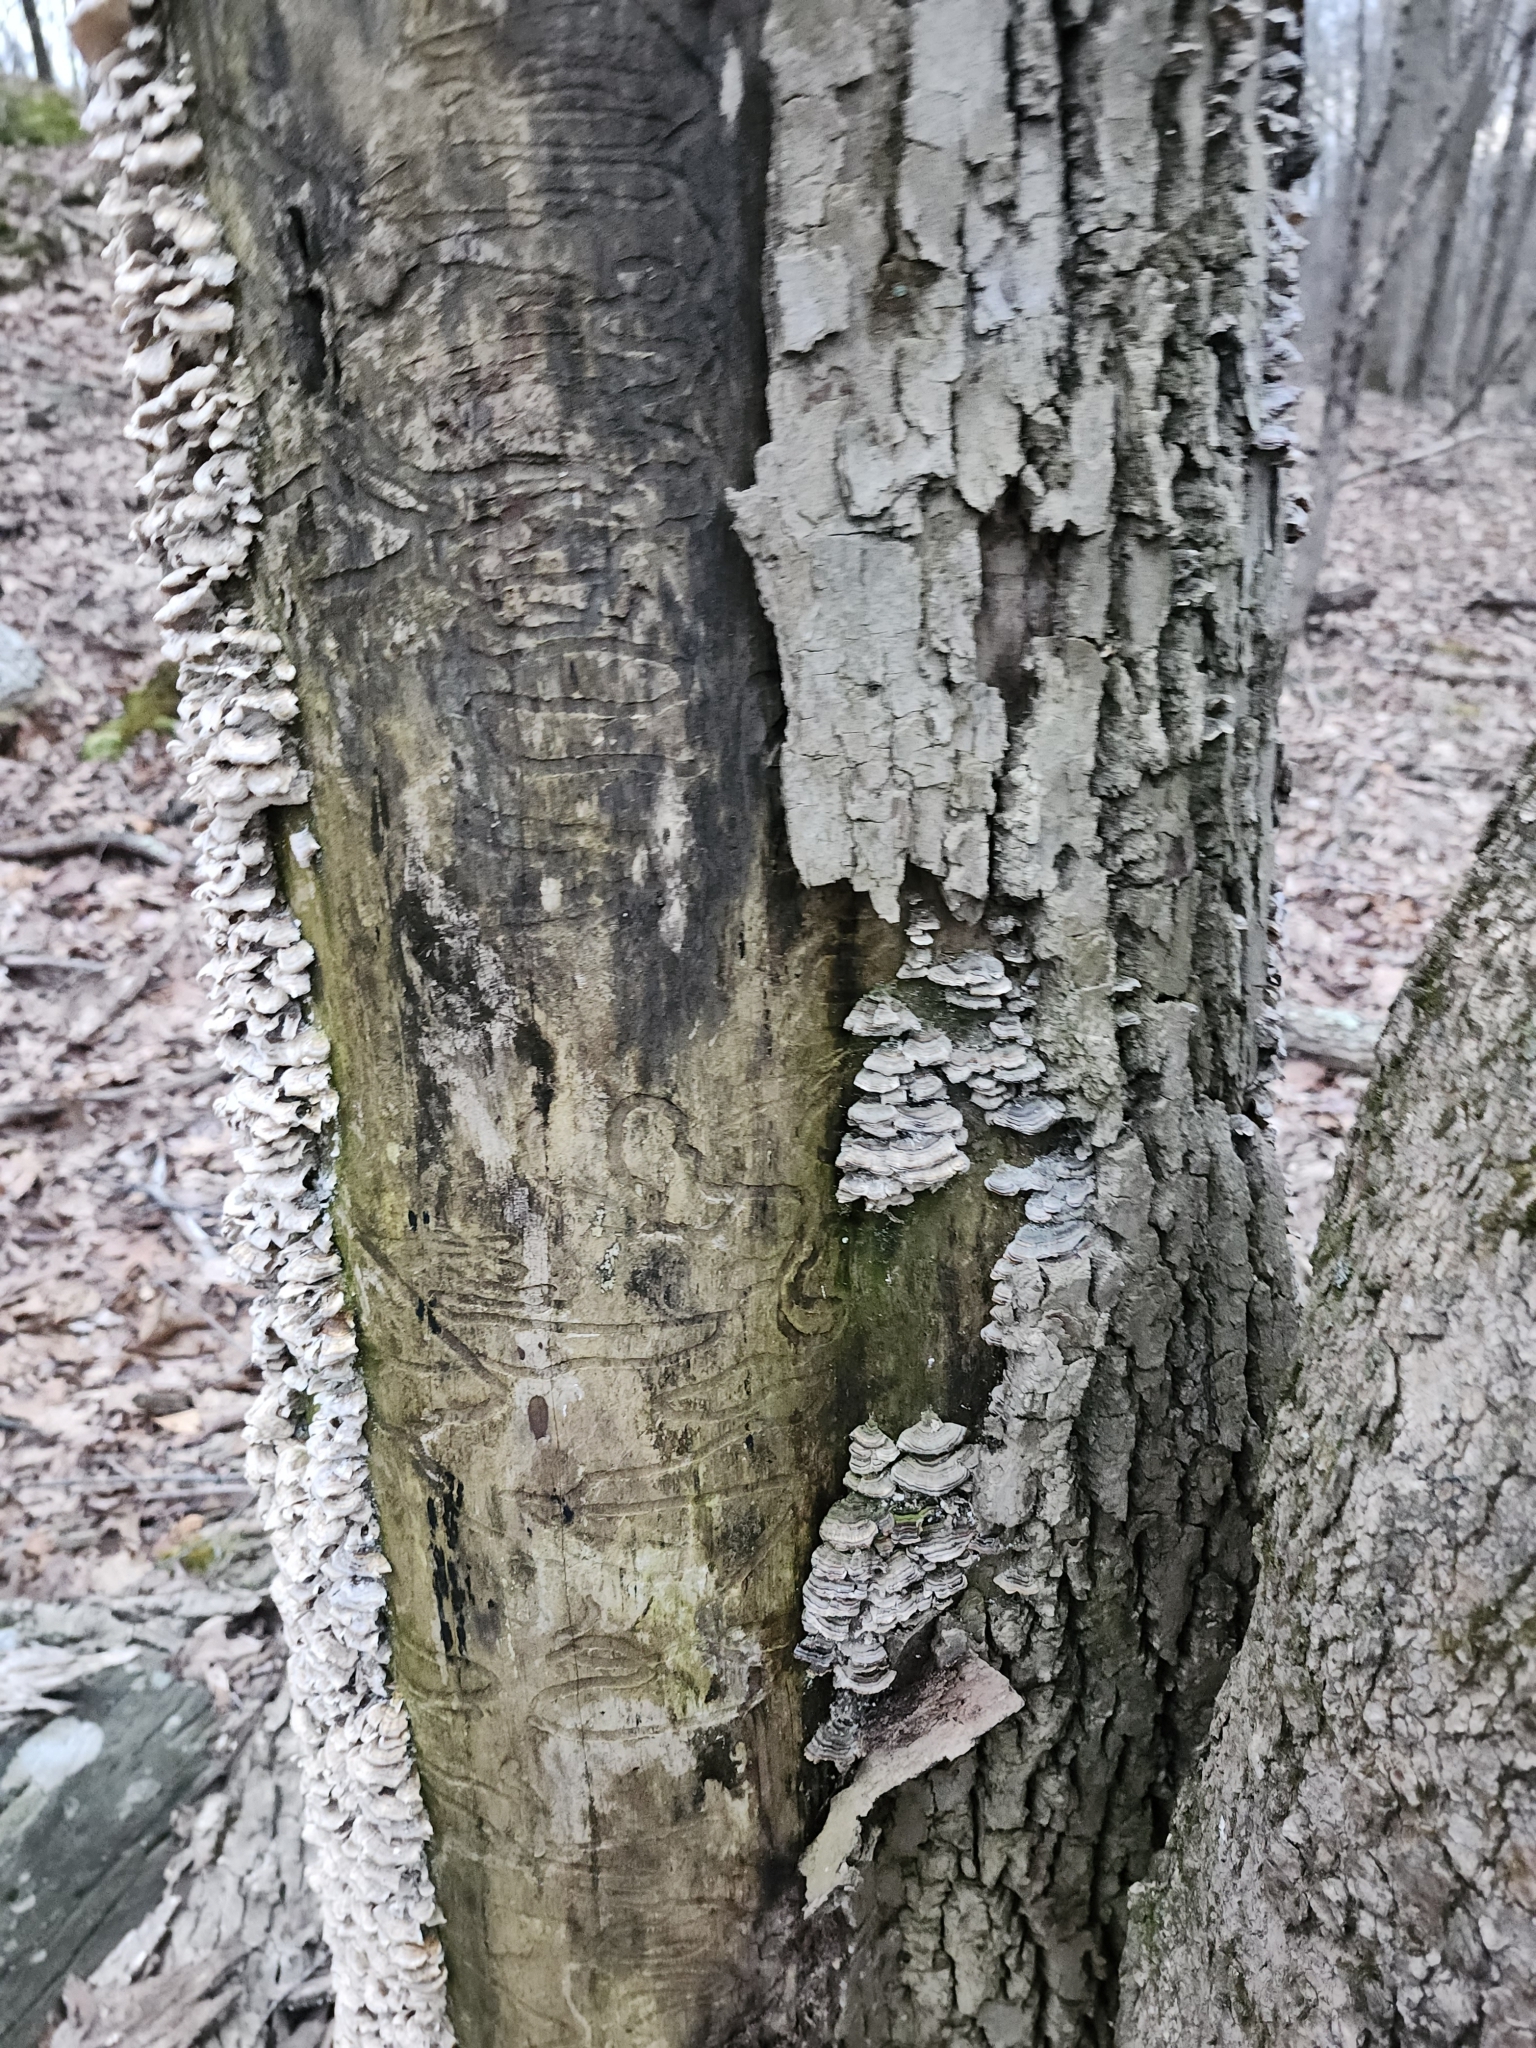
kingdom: Fungi
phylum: Basidiomycota
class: Agaricomycetes
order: Polyporales
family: Polyporaceae
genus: Trametes
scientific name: Trametes versicolor
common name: Turkeytail
